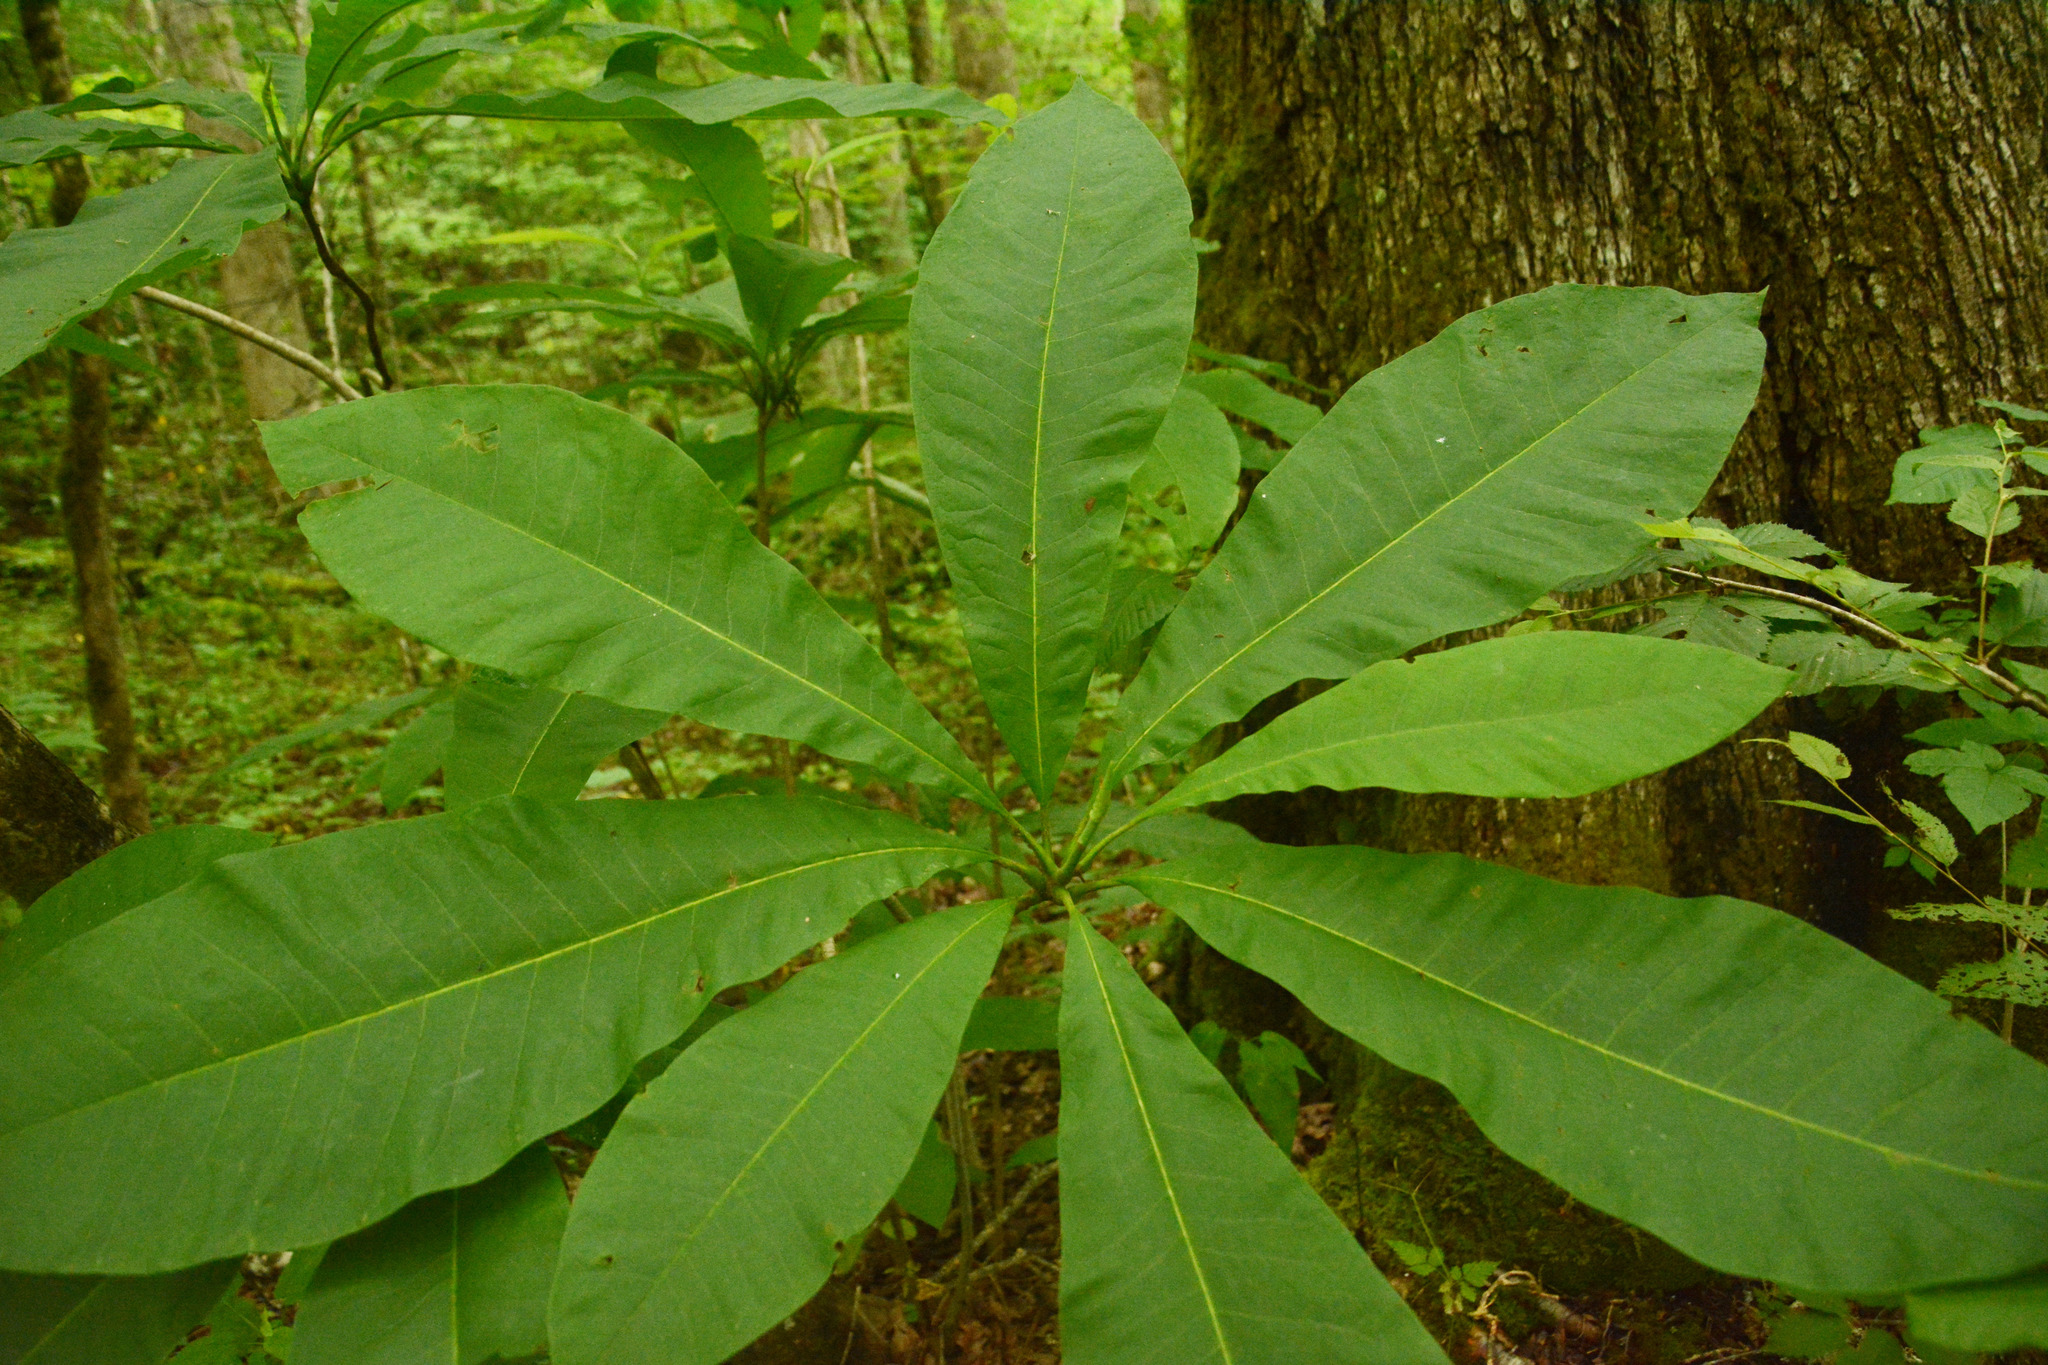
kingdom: Plantae
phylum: Tracheophyta
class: Magnoliopsida
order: Magnoliales
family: Magnoliaceae
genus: Magnolia
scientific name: Magnolia tripetala
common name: Umbrella magnolia
